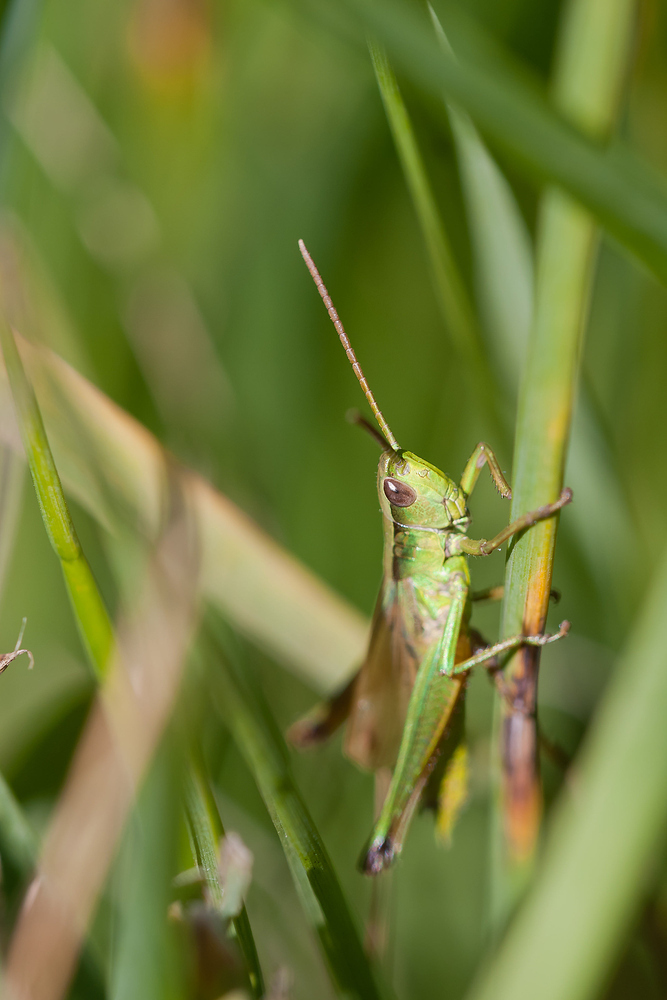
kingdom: Animalia
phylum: Arthropoda
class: Insecta
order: Orthoptera
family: Acrididae
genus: Chrysochraon
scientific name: Chrysochraon dispar
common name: Large gold grasshopper
